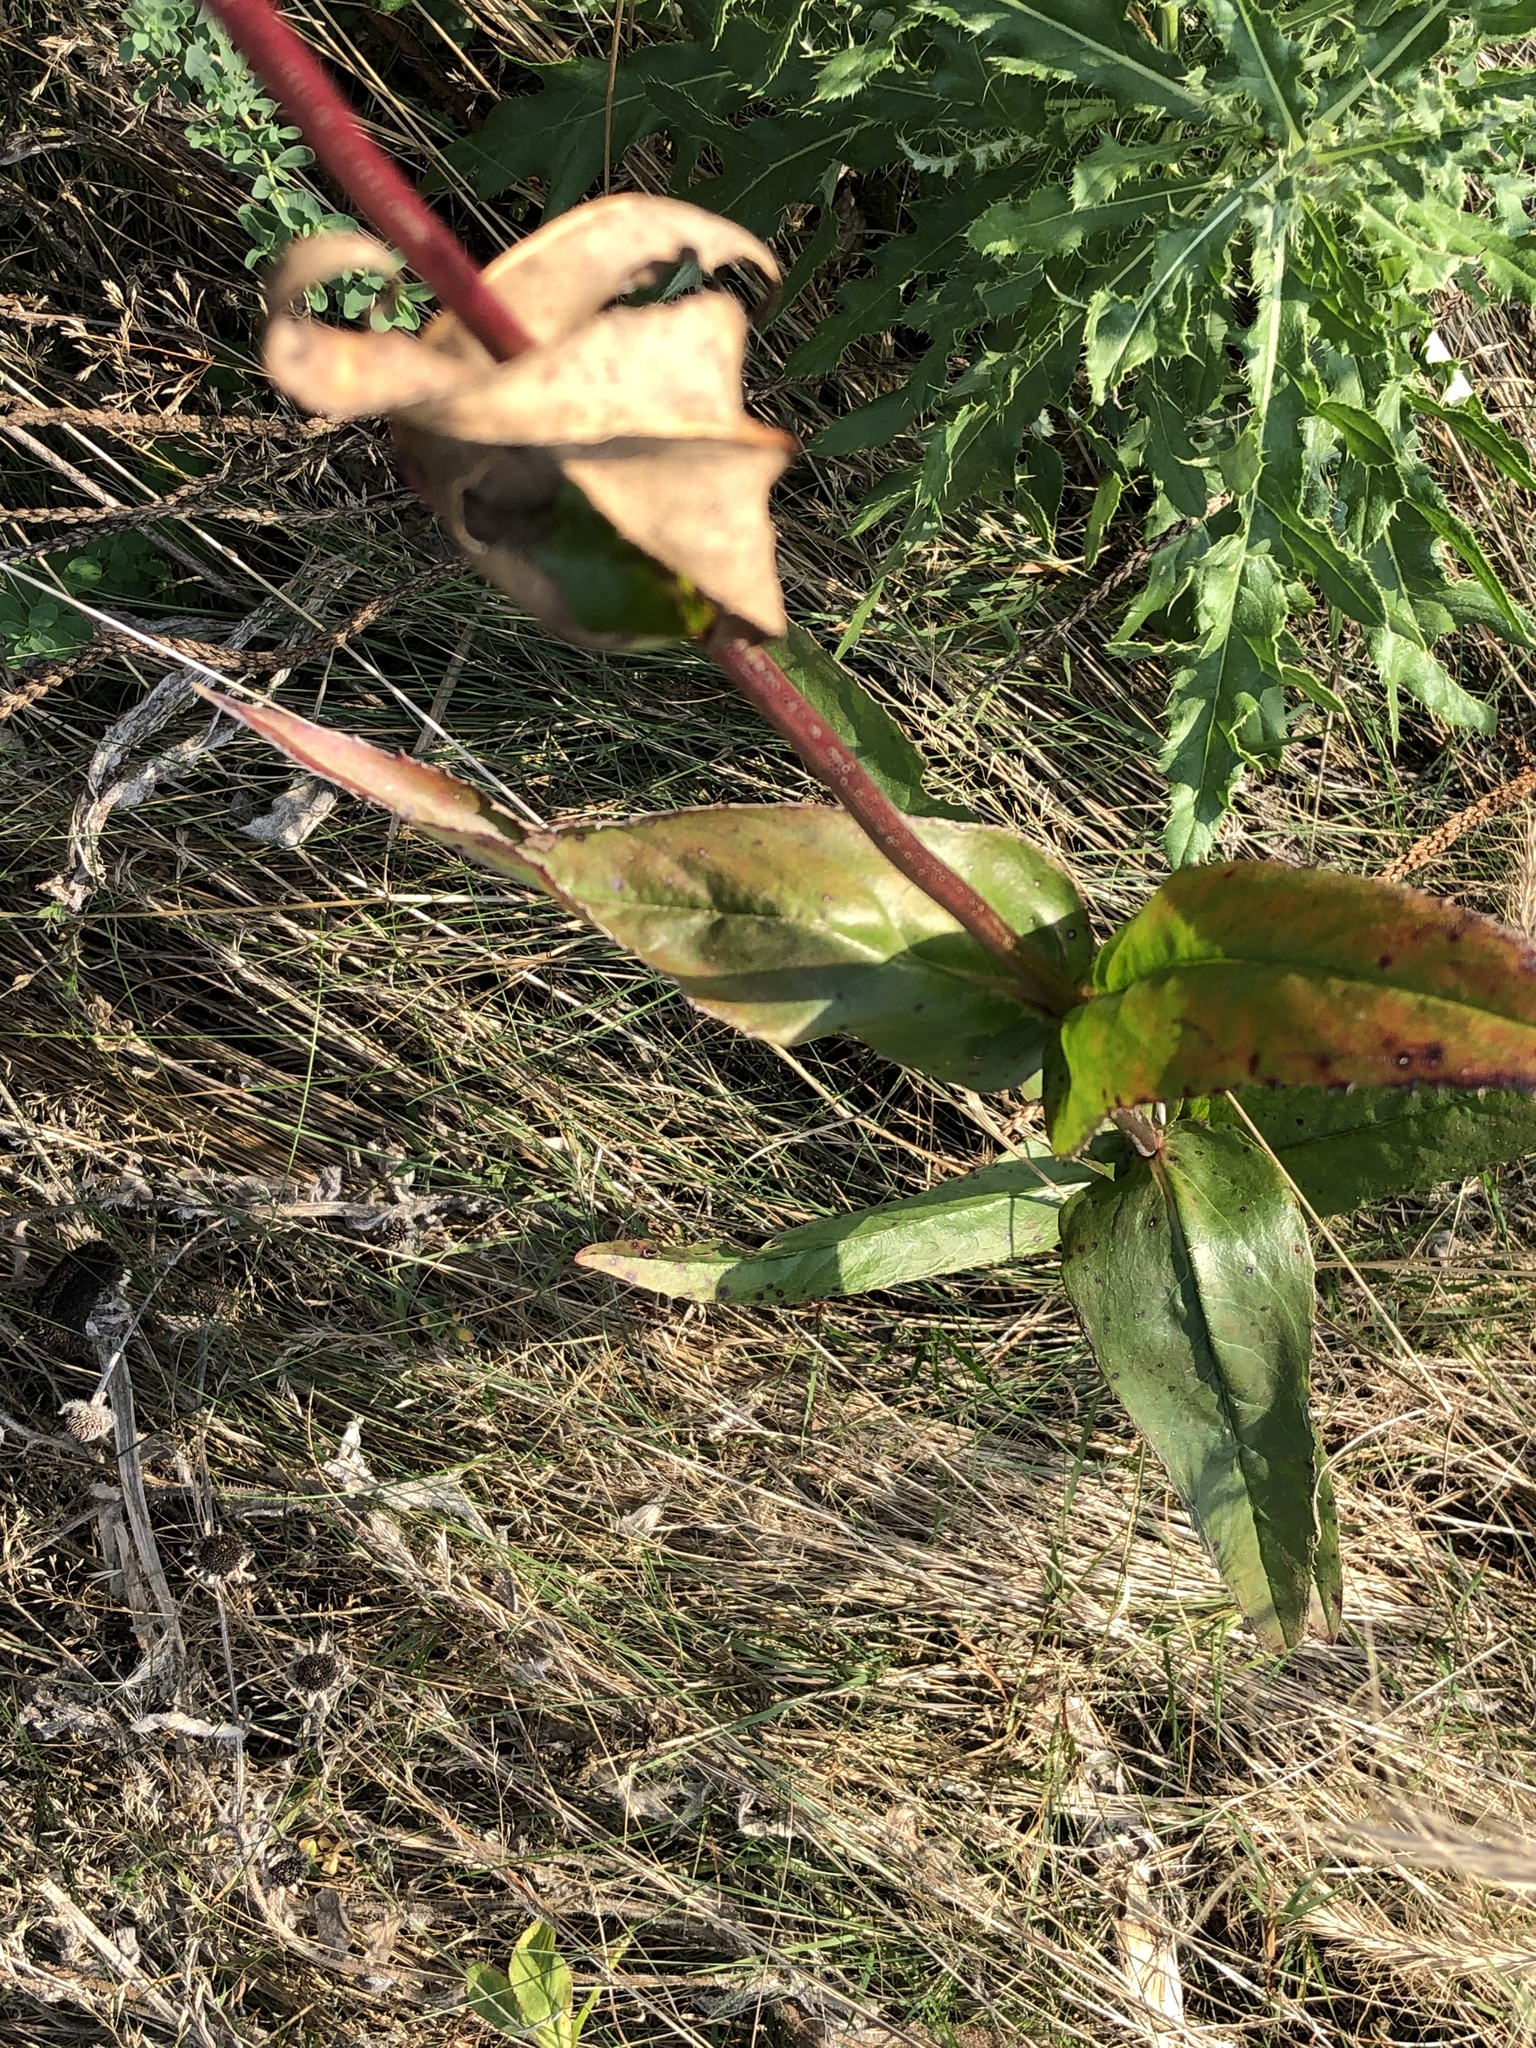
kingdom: Plantae
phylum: Tracheophyta
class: Magnoliopsida
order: Lamiales
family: Plantaginaceae
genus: Penstemon
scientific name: Penstemon digitalis
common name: Foxglove beardtongue
